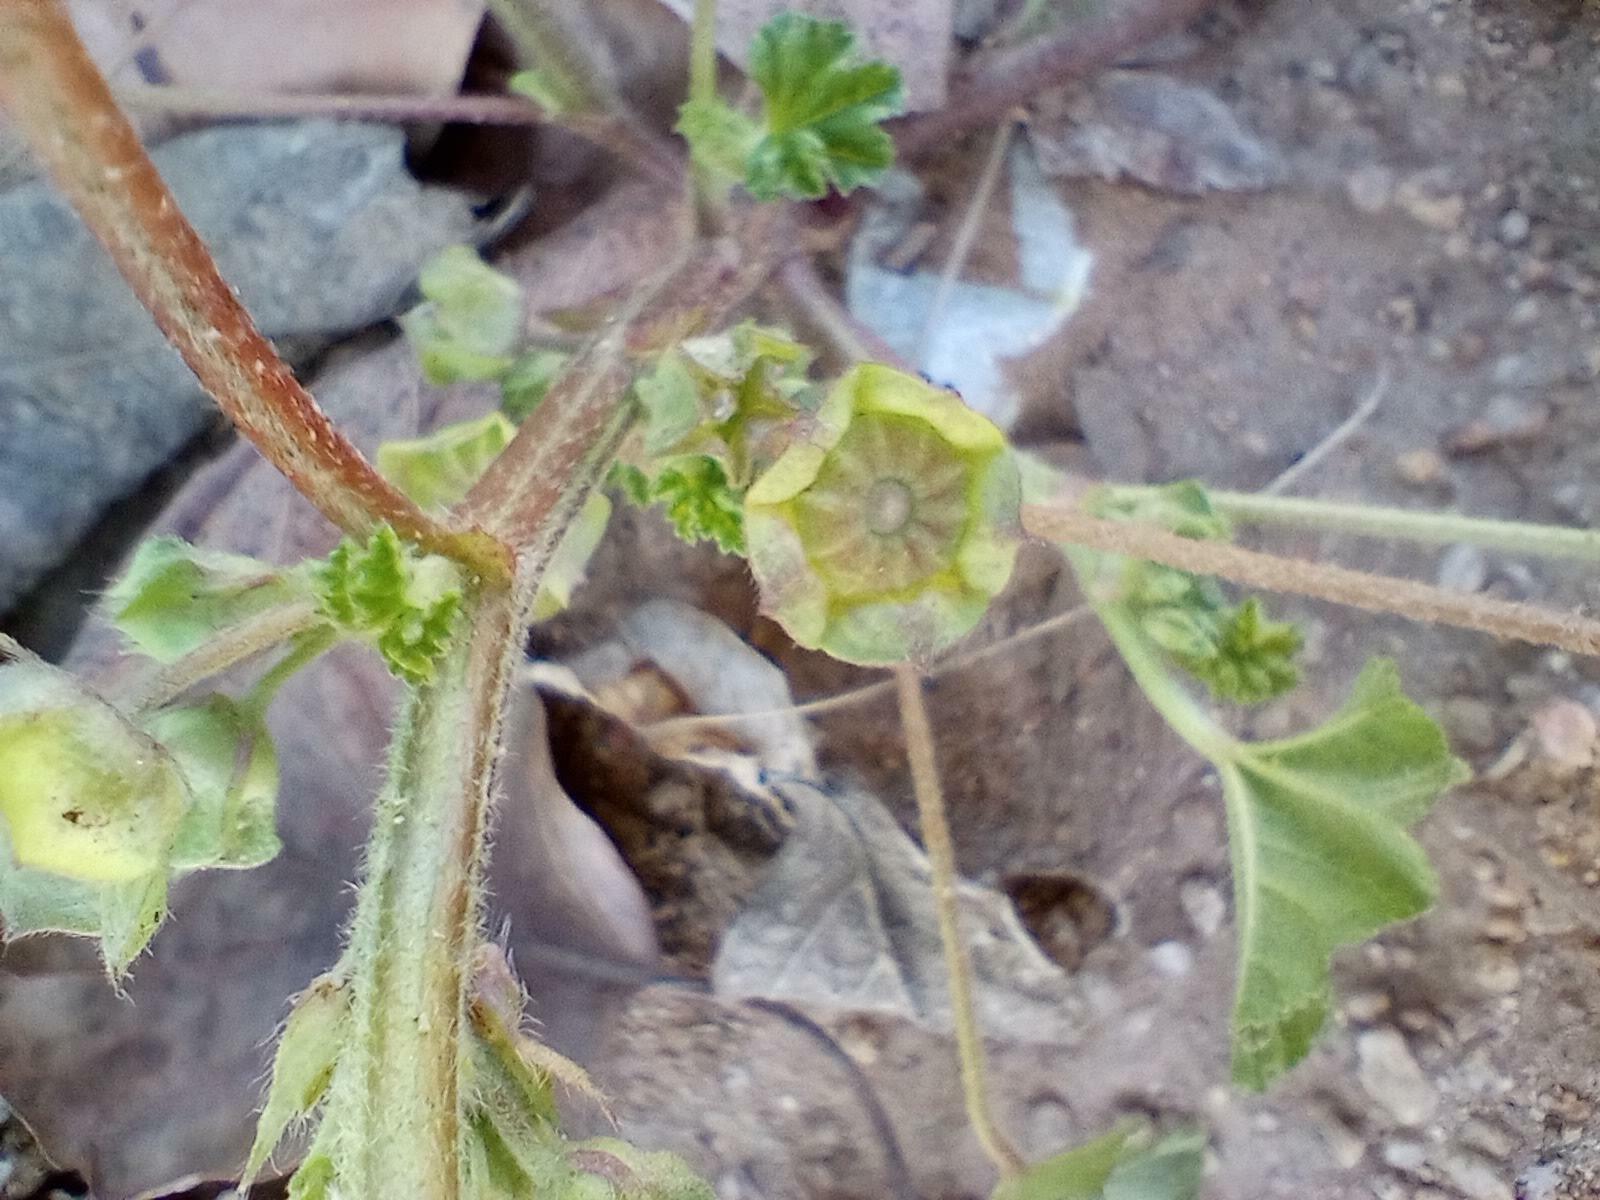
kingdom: Plantae
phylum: Tracheophyta
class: Magnoliopsida
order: Malvales
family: Malvaceae
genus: Malva
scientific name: Malva parviflora
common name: Least mallow
